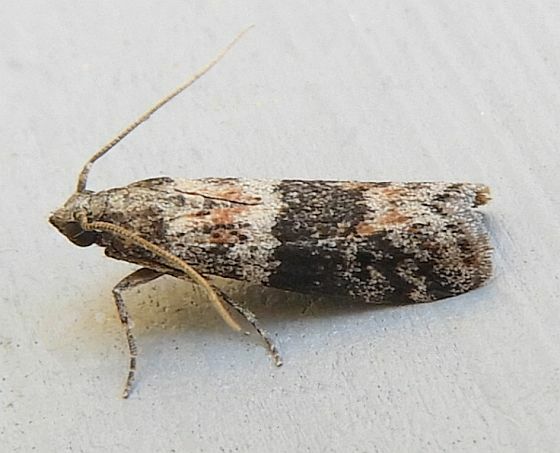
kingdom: Animalia
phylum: Arthropoda
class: Insecta
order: Lepidoptera
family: Pyralidae
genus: Caudellia
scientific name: Caudellia nigrella
